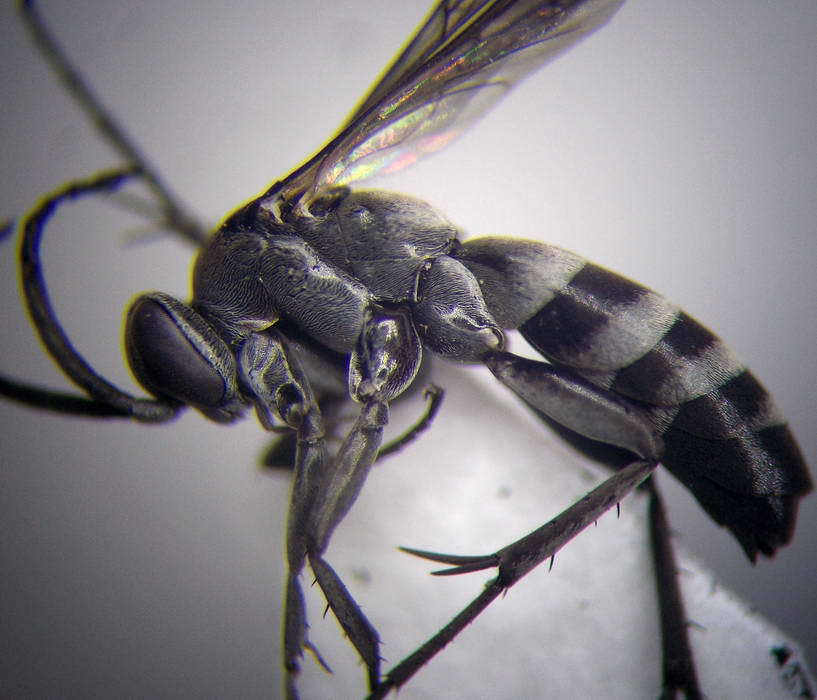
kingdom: Animalia
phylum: Arthropoda
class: Insecta
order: Hymenoptera
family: Pompilidae
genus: Aporinellus
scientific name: Aporinellus sexmaculatus
